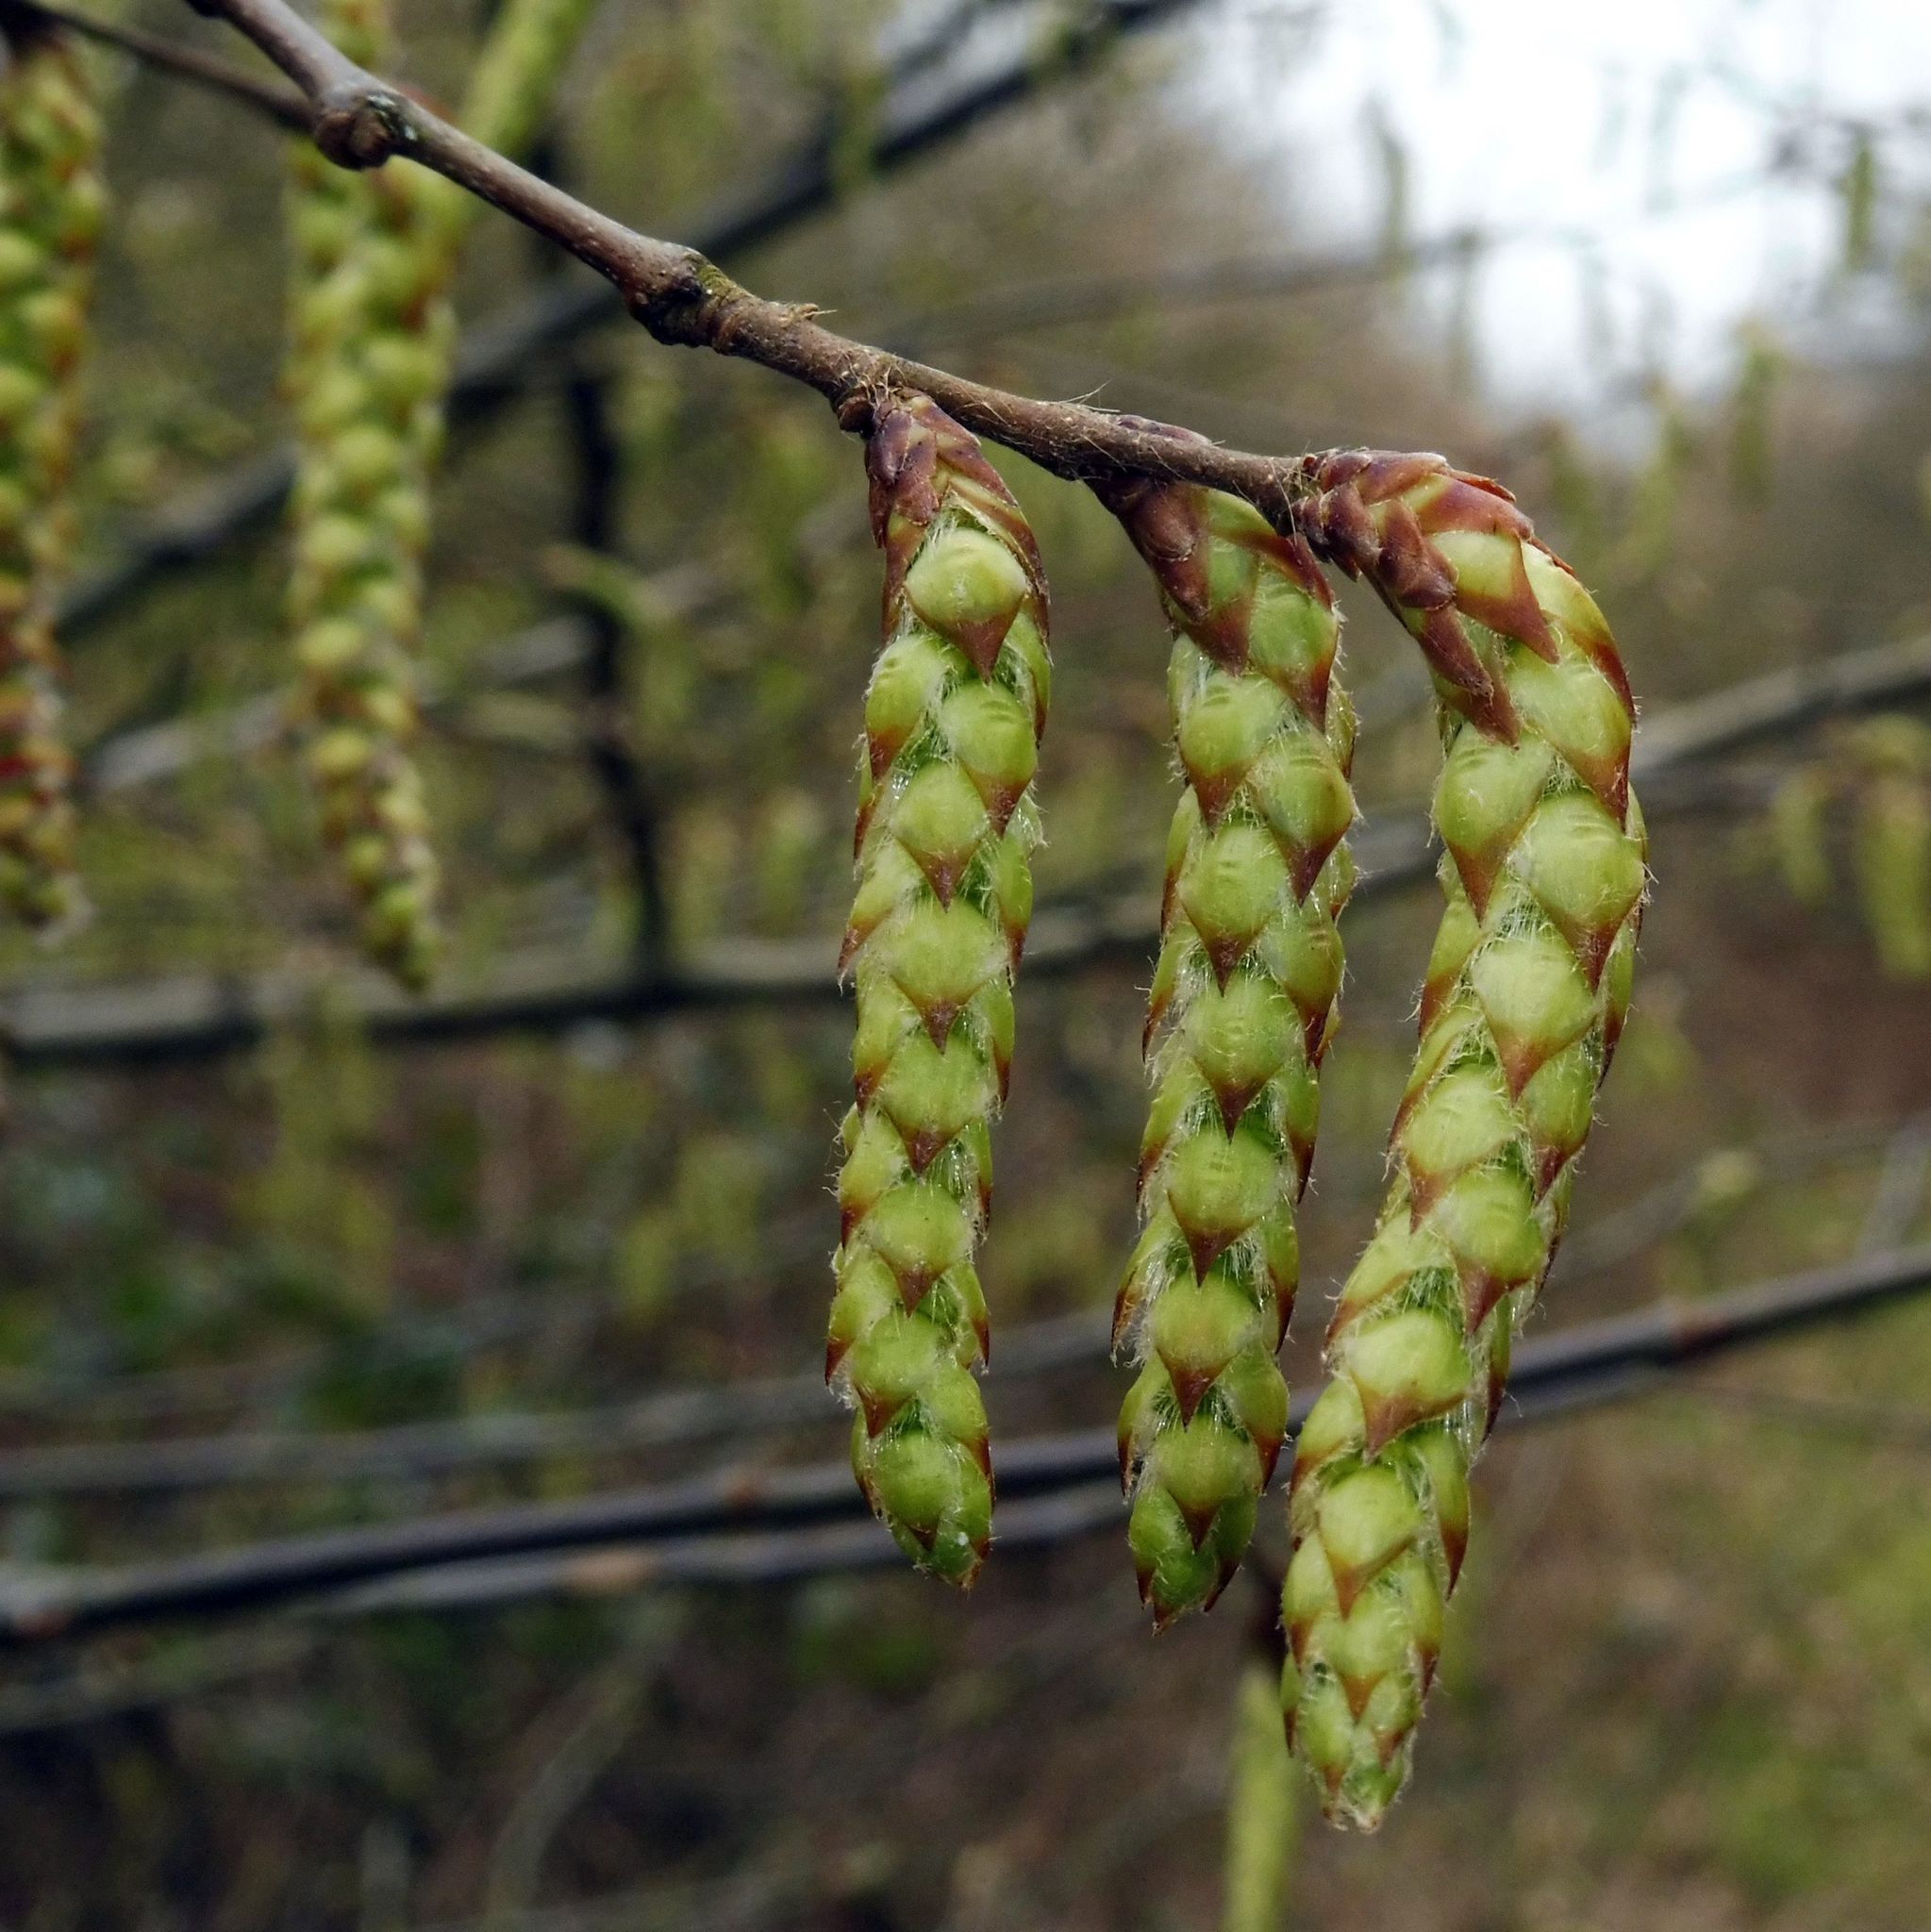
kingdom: Plantae
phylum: Tracheophyta
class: Magnoliopsida
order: Fagales
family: Betulaceae
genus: Carpinus
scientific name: Carpinus betulus
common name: Hornbeam
